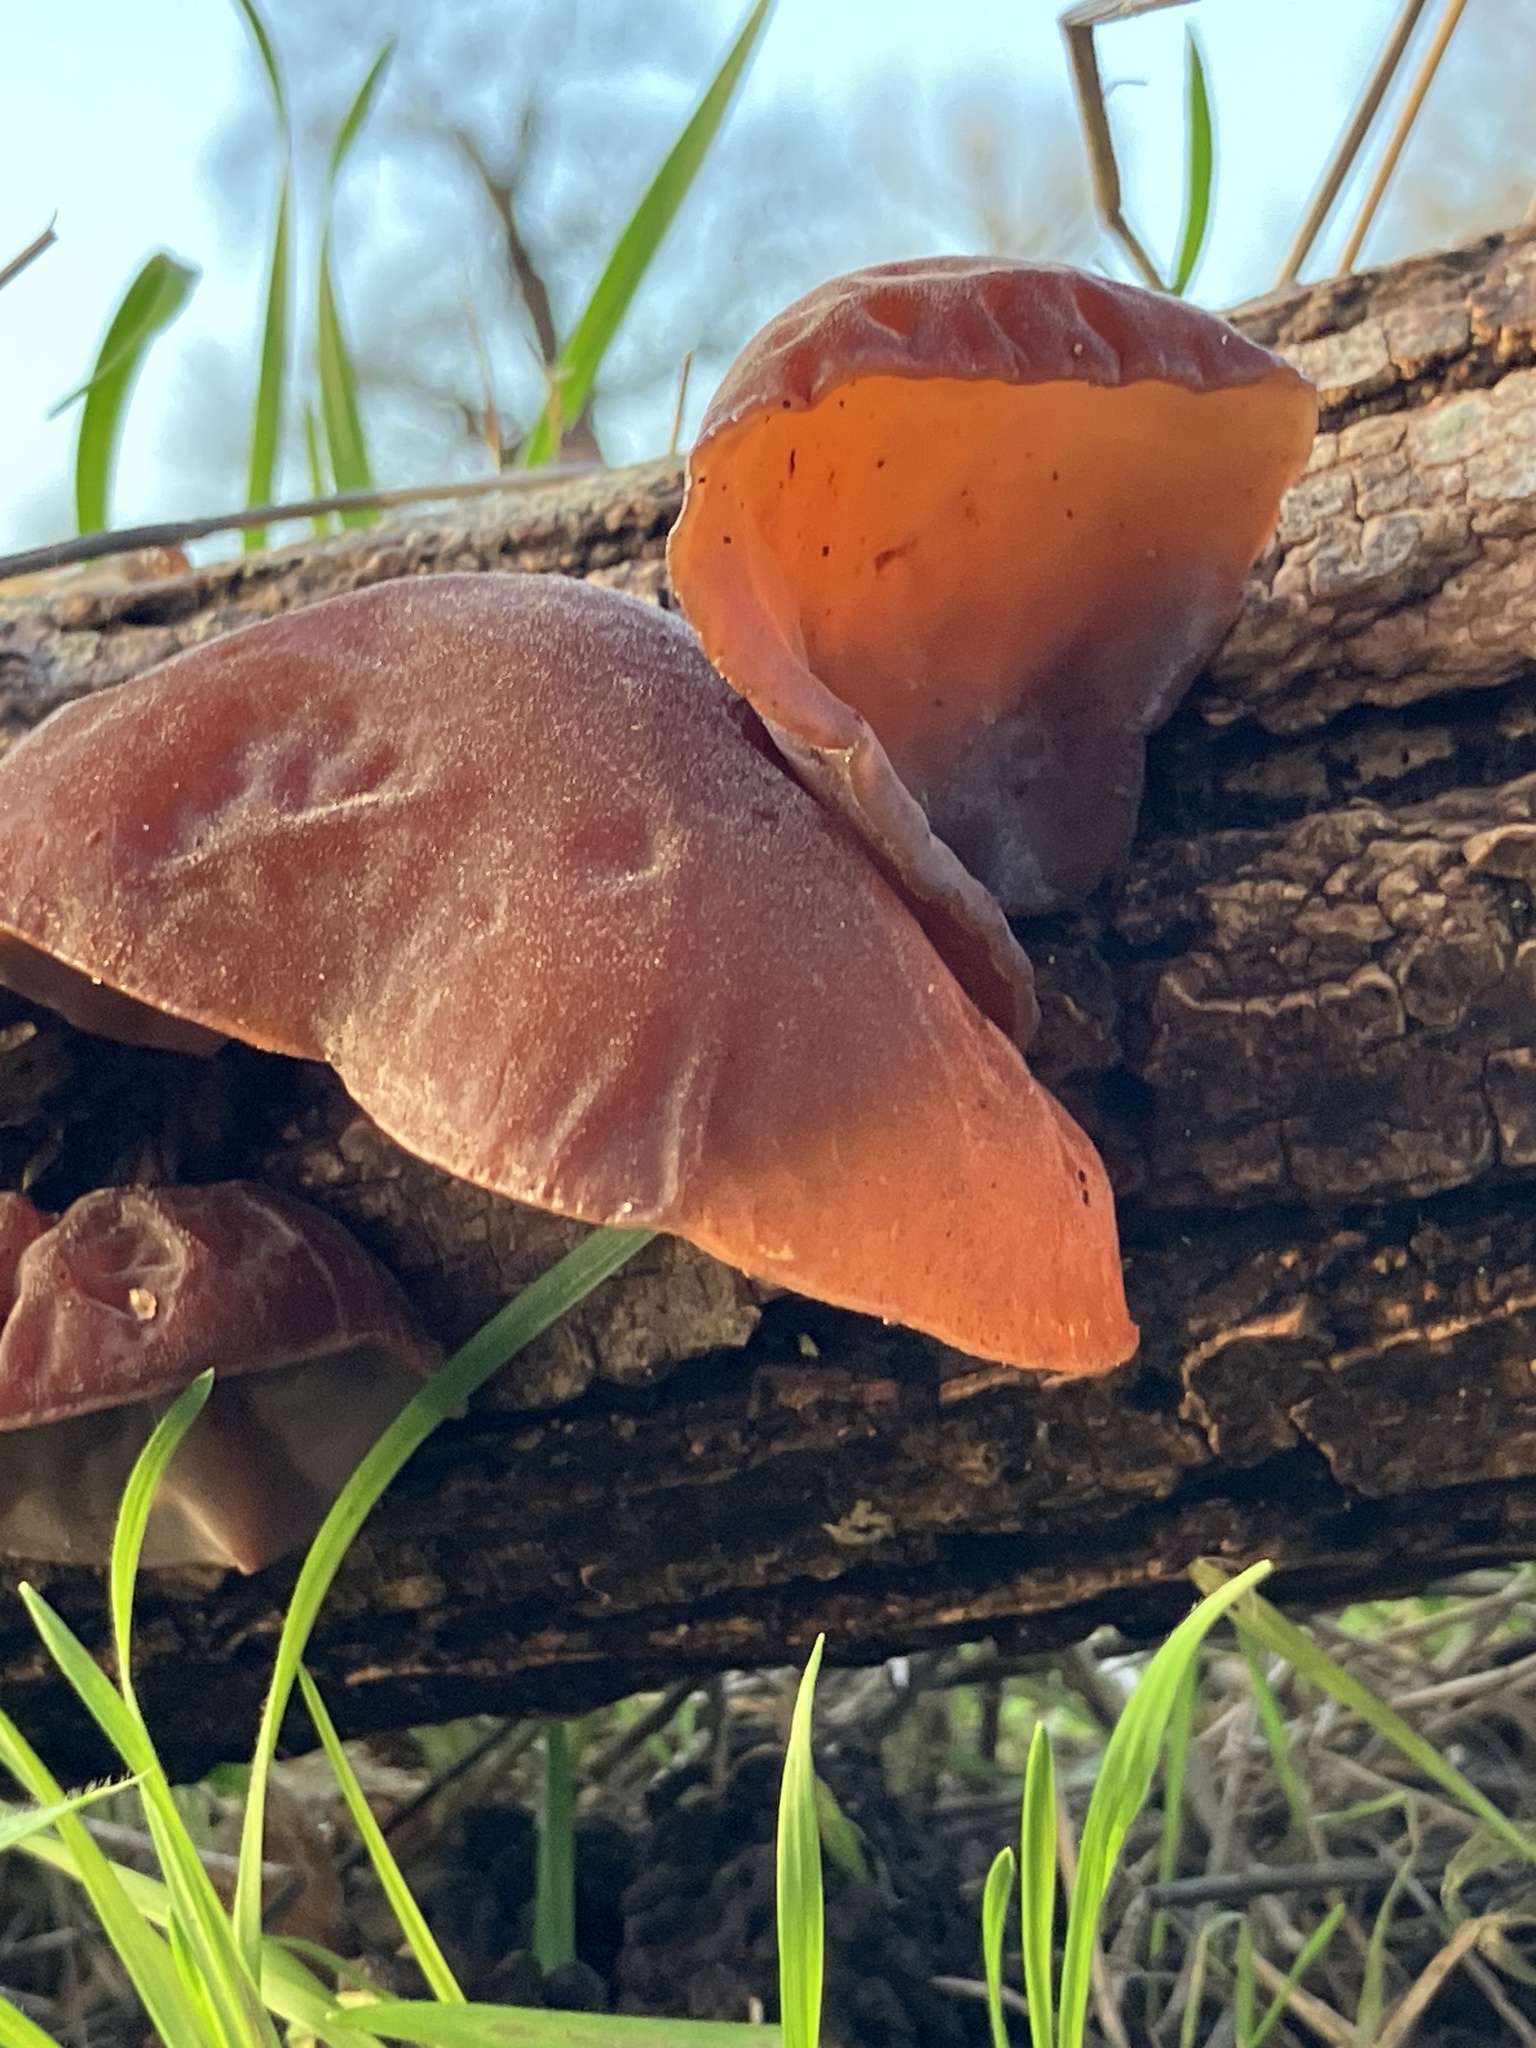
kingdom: Fungi
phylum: Basidiomycota
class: Agaricomycetes
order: Auriculariales
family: Auriculariaceae
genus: Auricularia
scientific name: Auricularia auricula-judae
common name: Jelly ear
